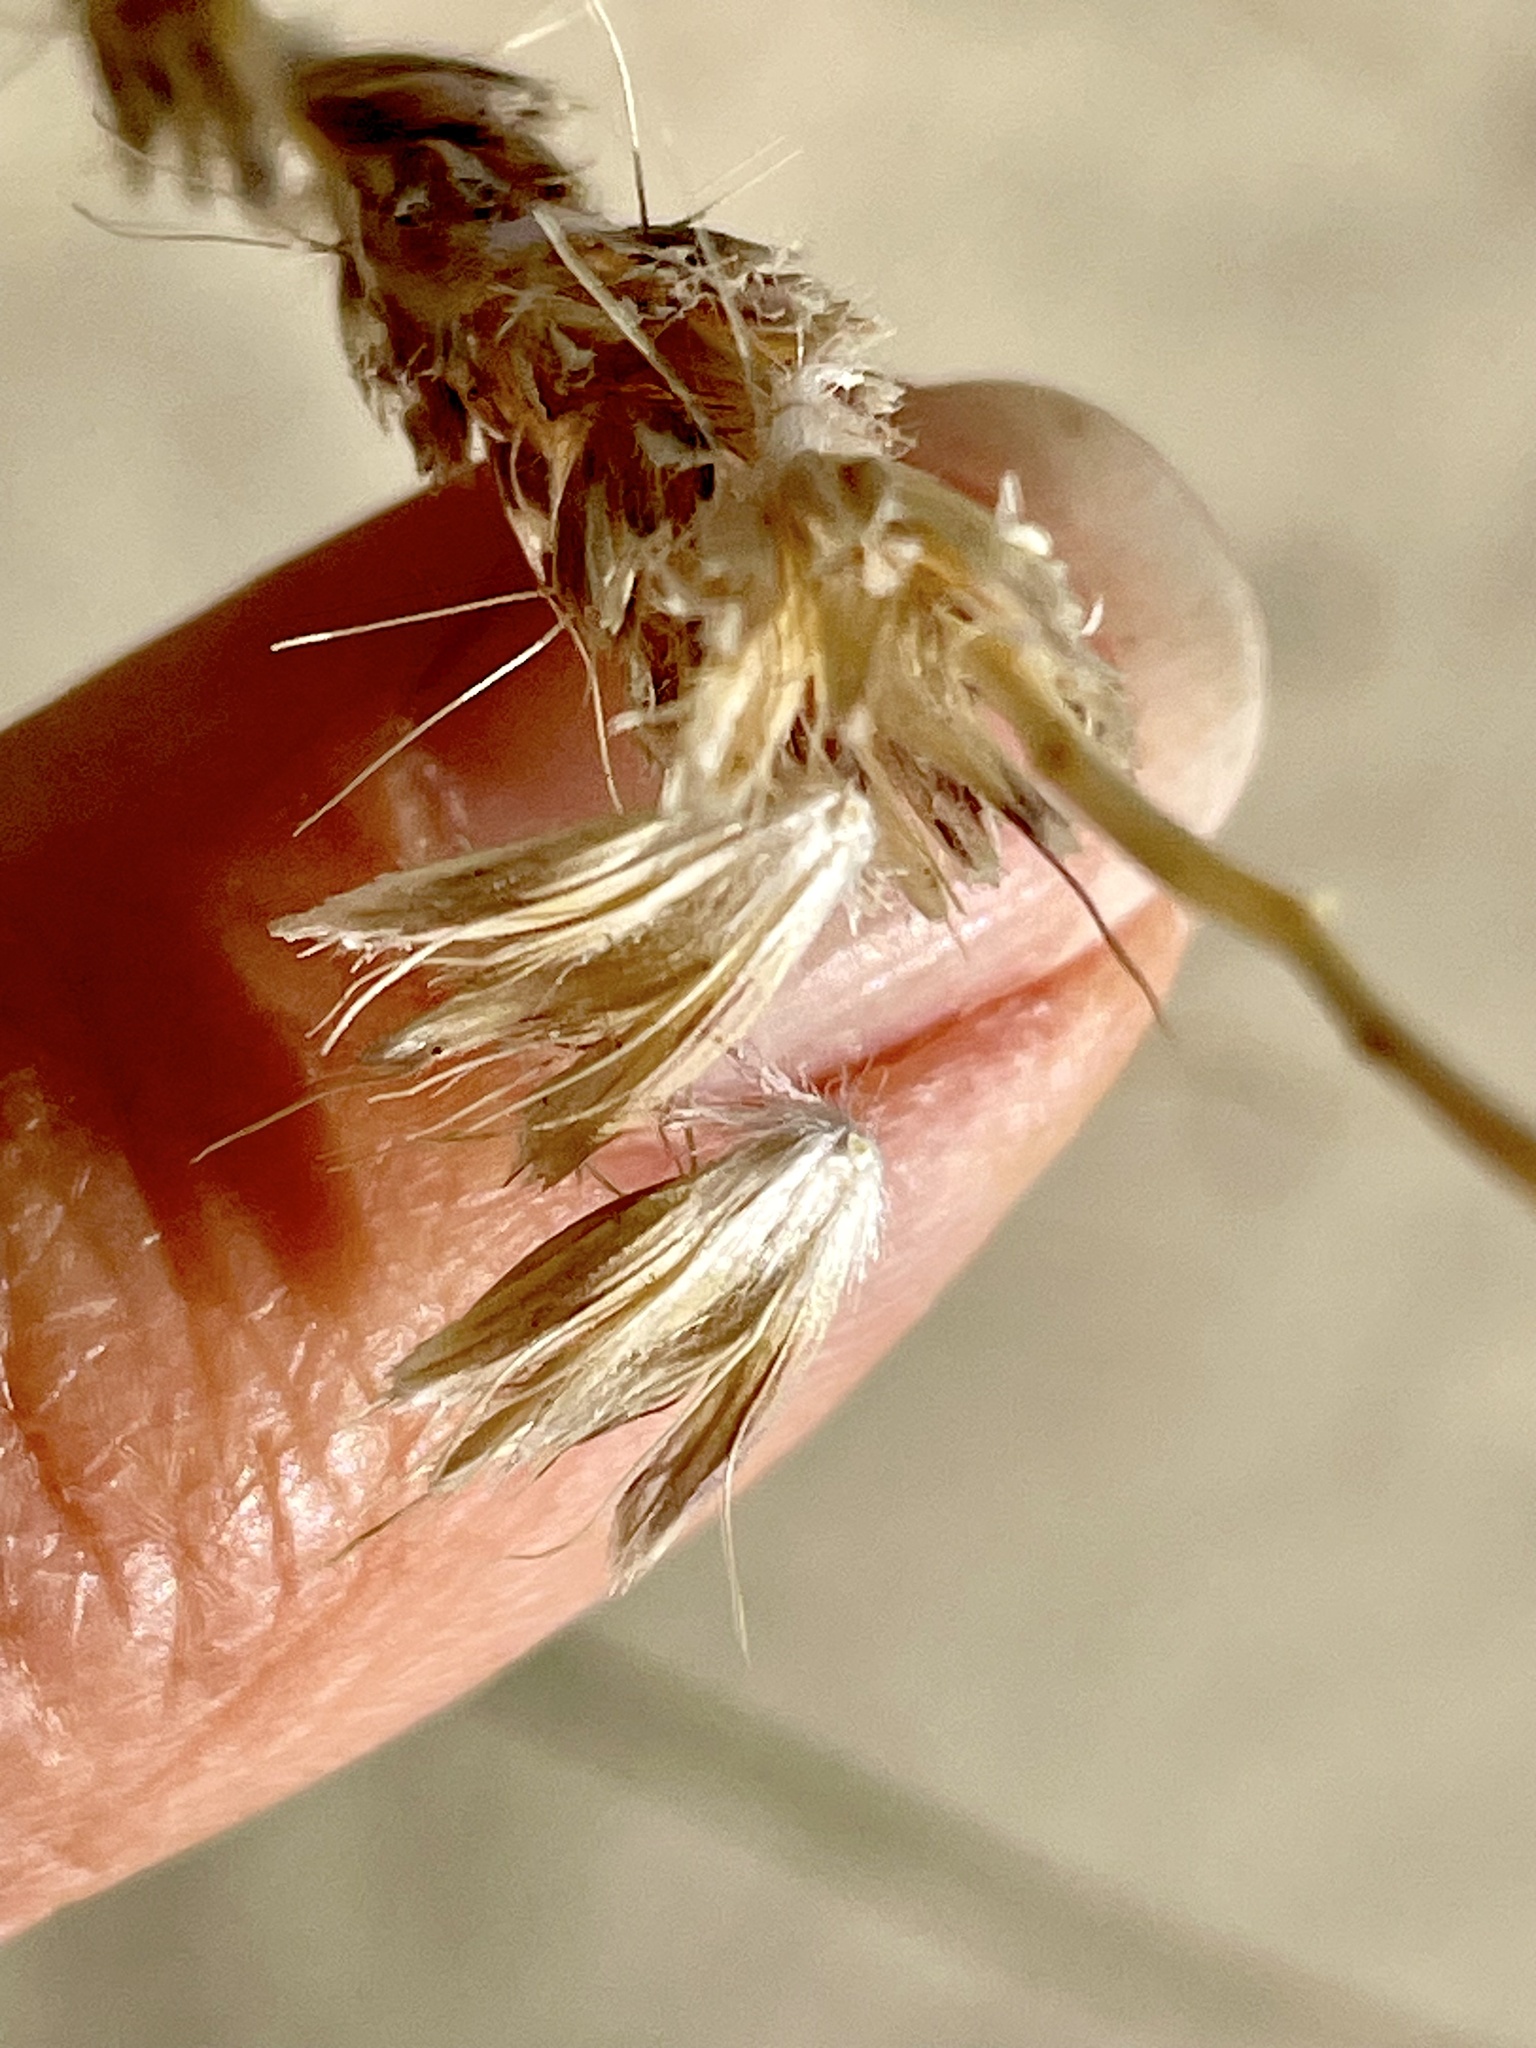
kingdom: Plantae
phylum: Tracheophyta
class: Liliopsida
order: Poales
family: Poaceae
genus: Hilaria
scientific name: Hilaria rigida
